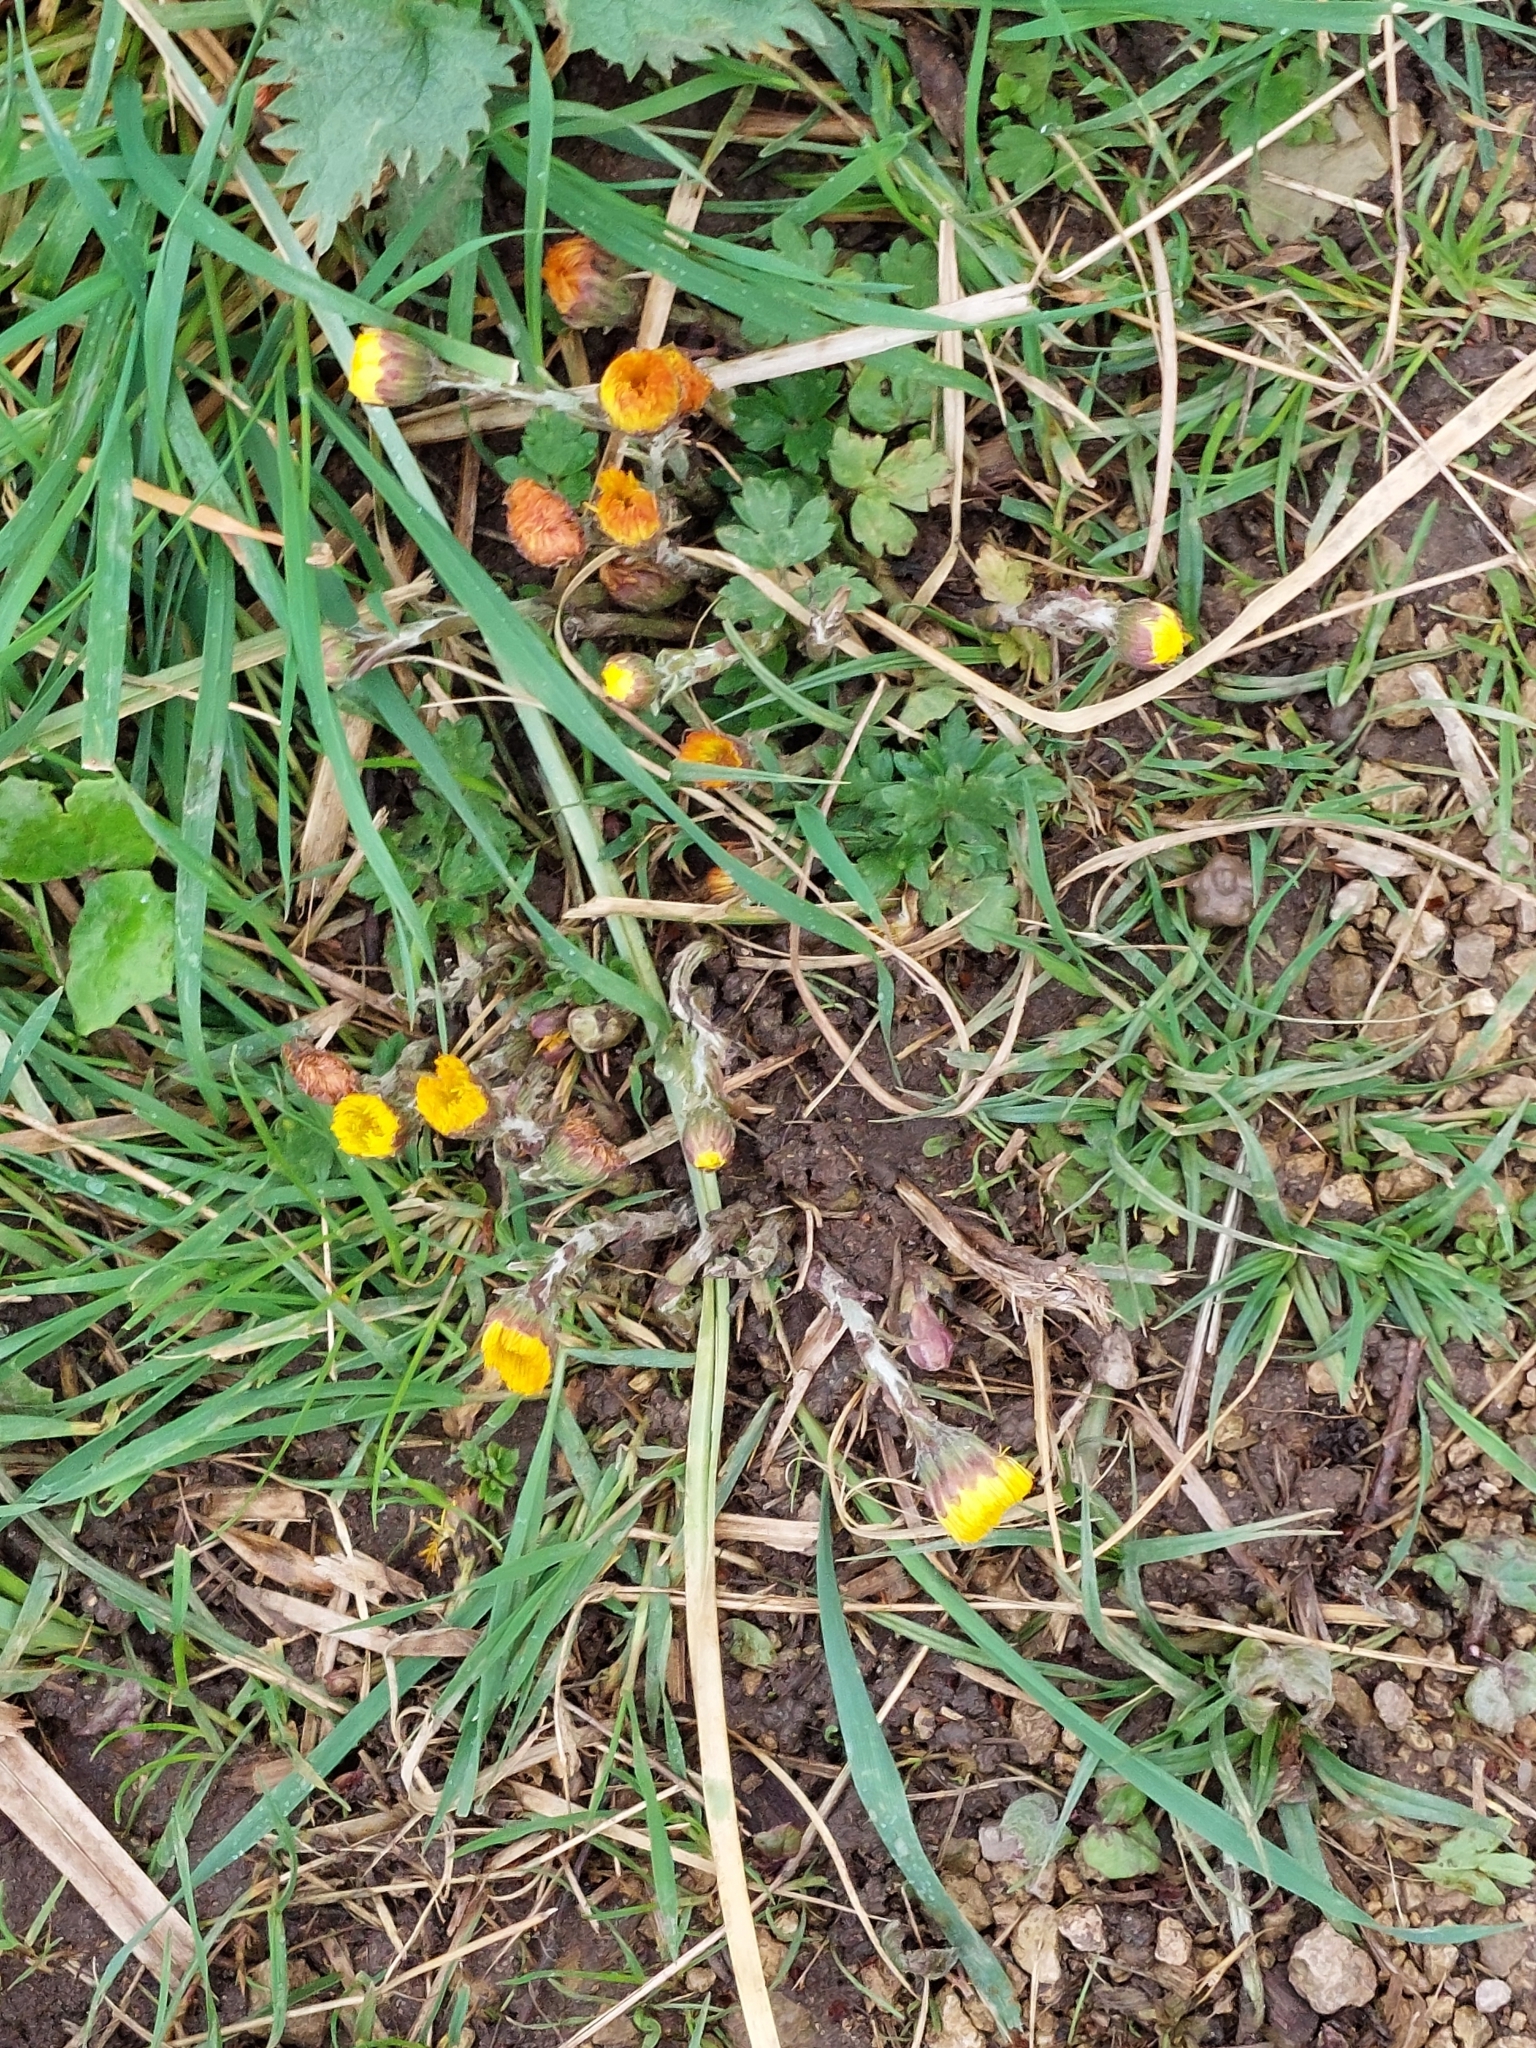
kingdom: Plantae
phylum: Tracheophyta
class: Magnoliopsida
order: Asterales
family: Asteraceae
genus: Tussilago
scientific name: Tussilago farfara
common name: Coltsfoot
